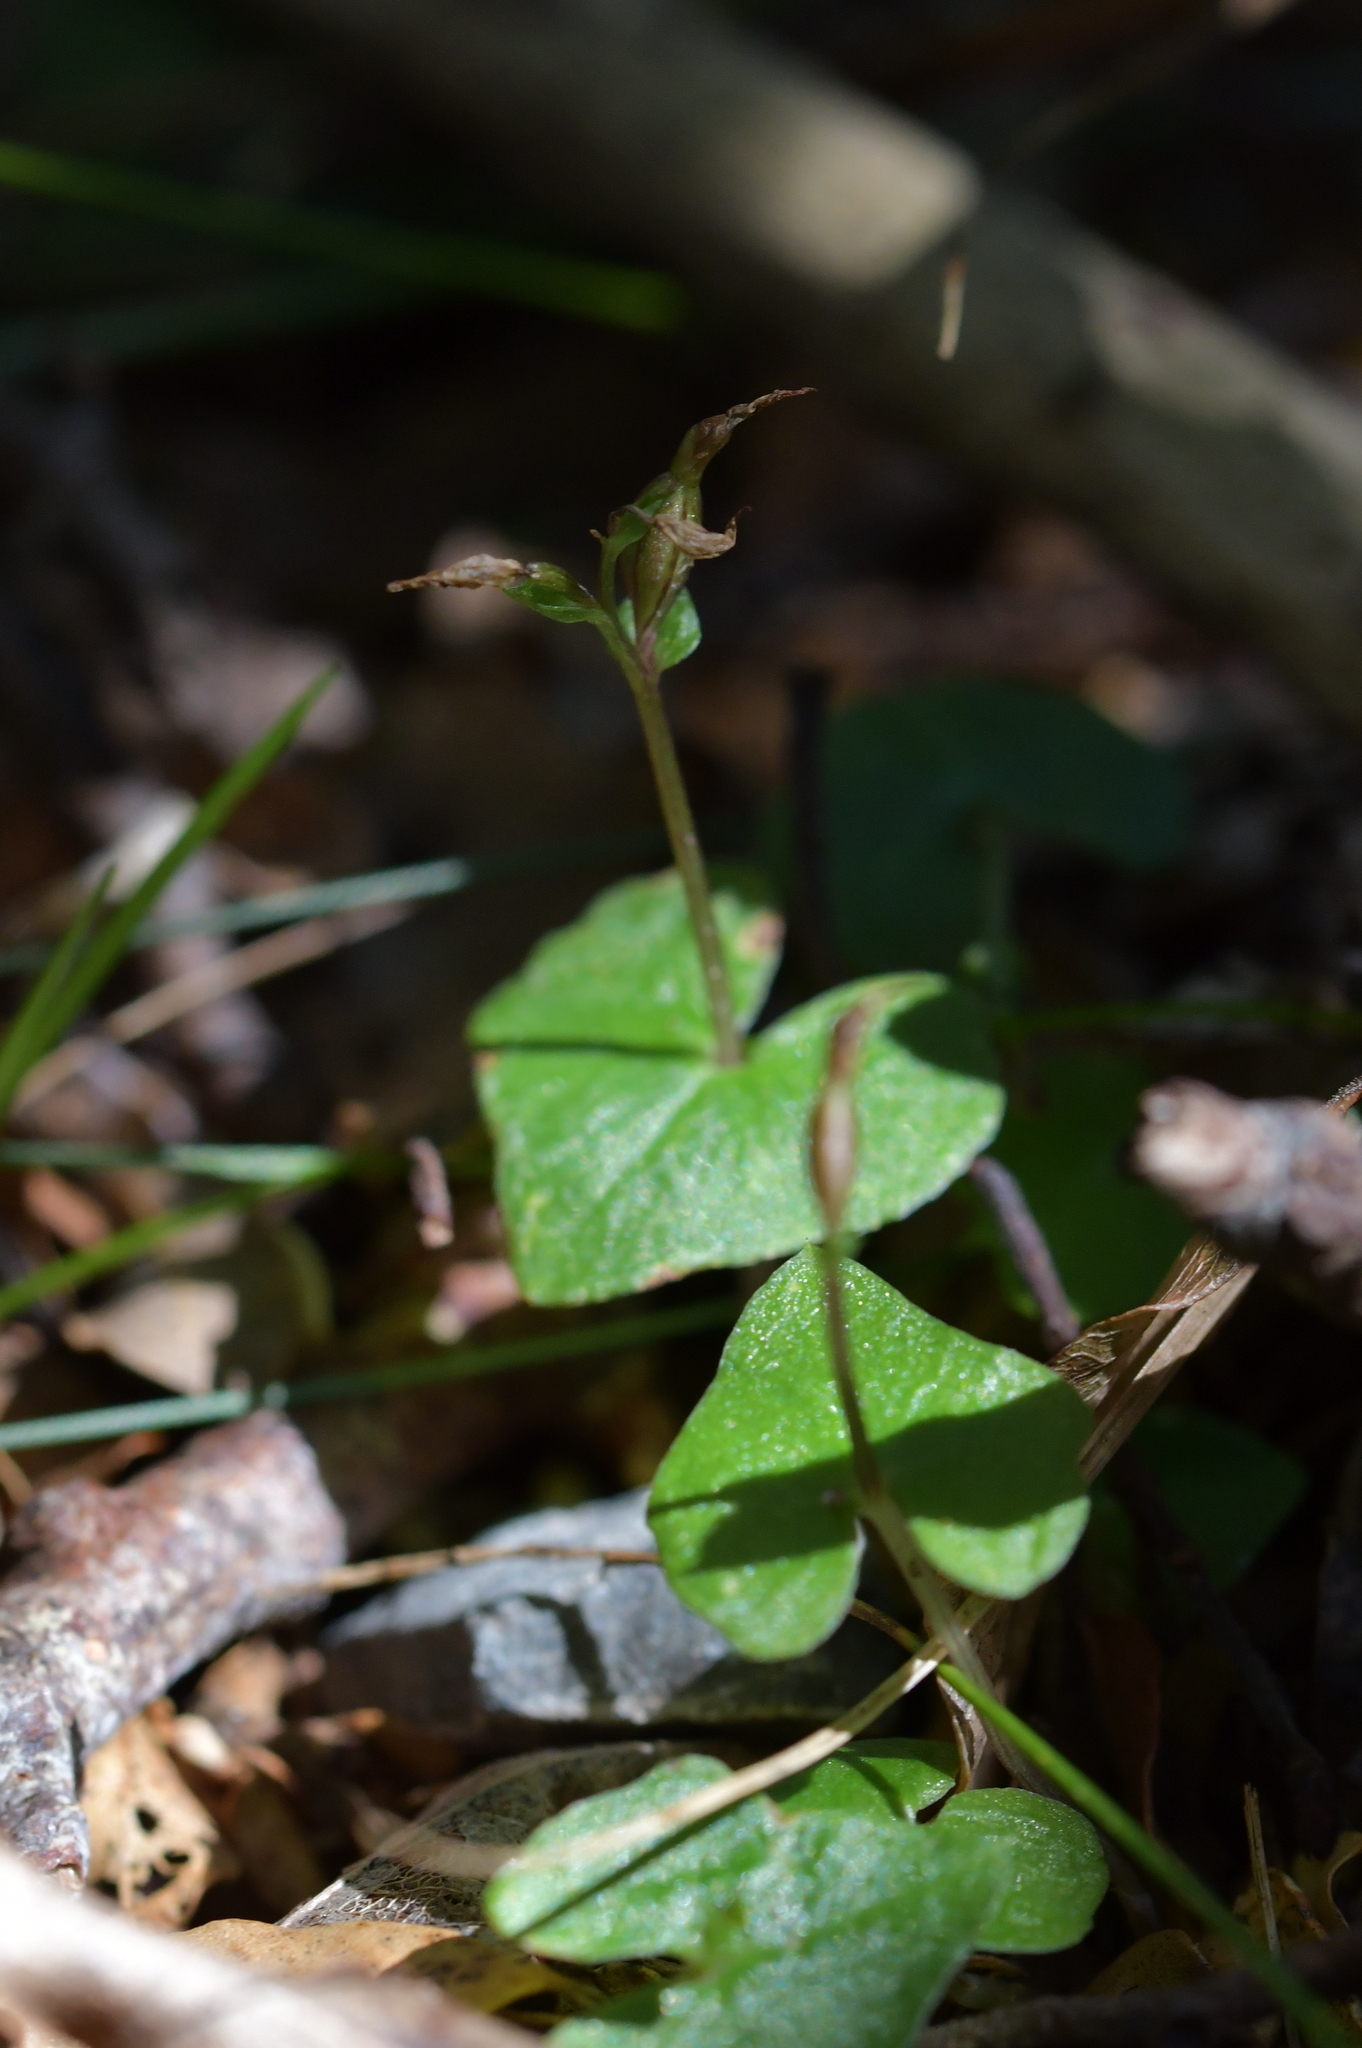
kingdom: Plantae
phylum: Tracheophyta
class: Liliopsida
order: Asparagales
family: Orchidaceae
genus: Acianthus
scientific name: Acianthus sinclairii
